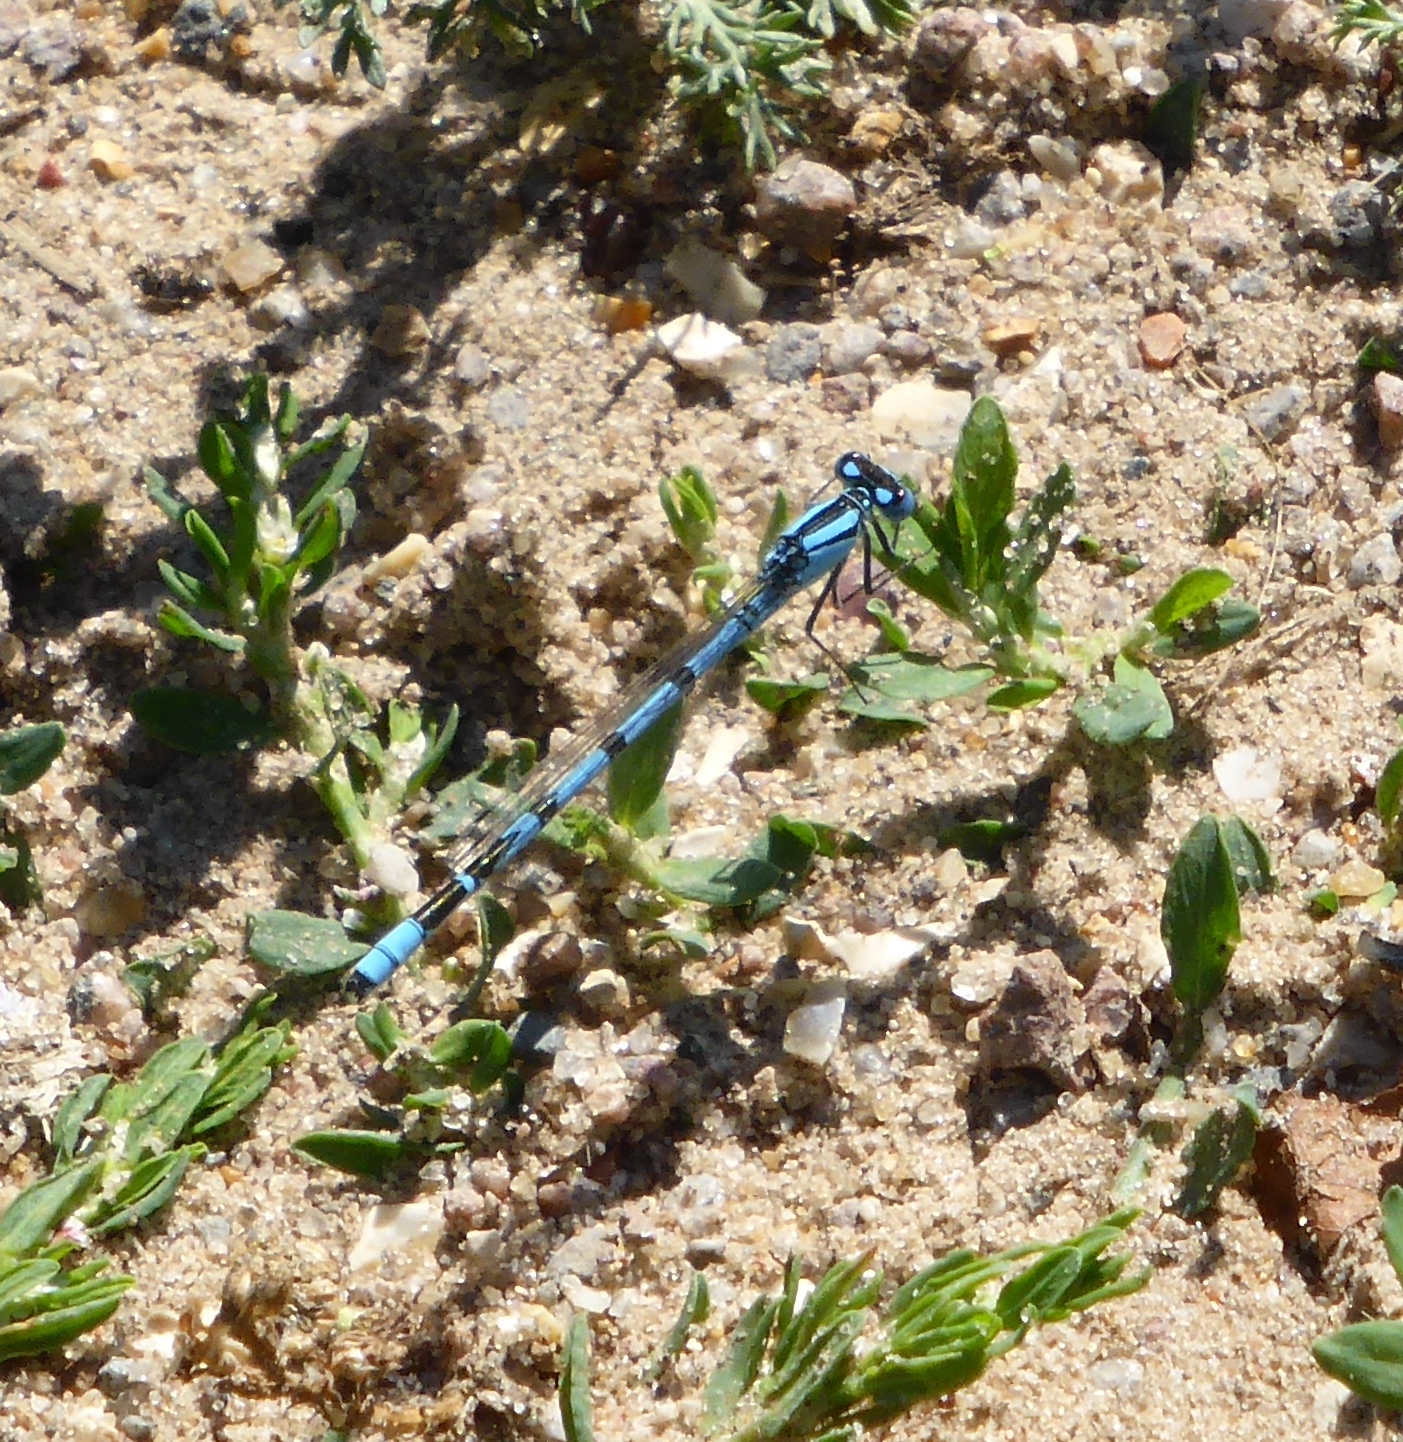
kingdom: Animalia
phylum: Arthropoda
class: Insecta
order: Odonata
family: Coenagrionidae
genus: Enallagma
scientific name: Enallagma cyathigerum
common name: Common blue damselfly
